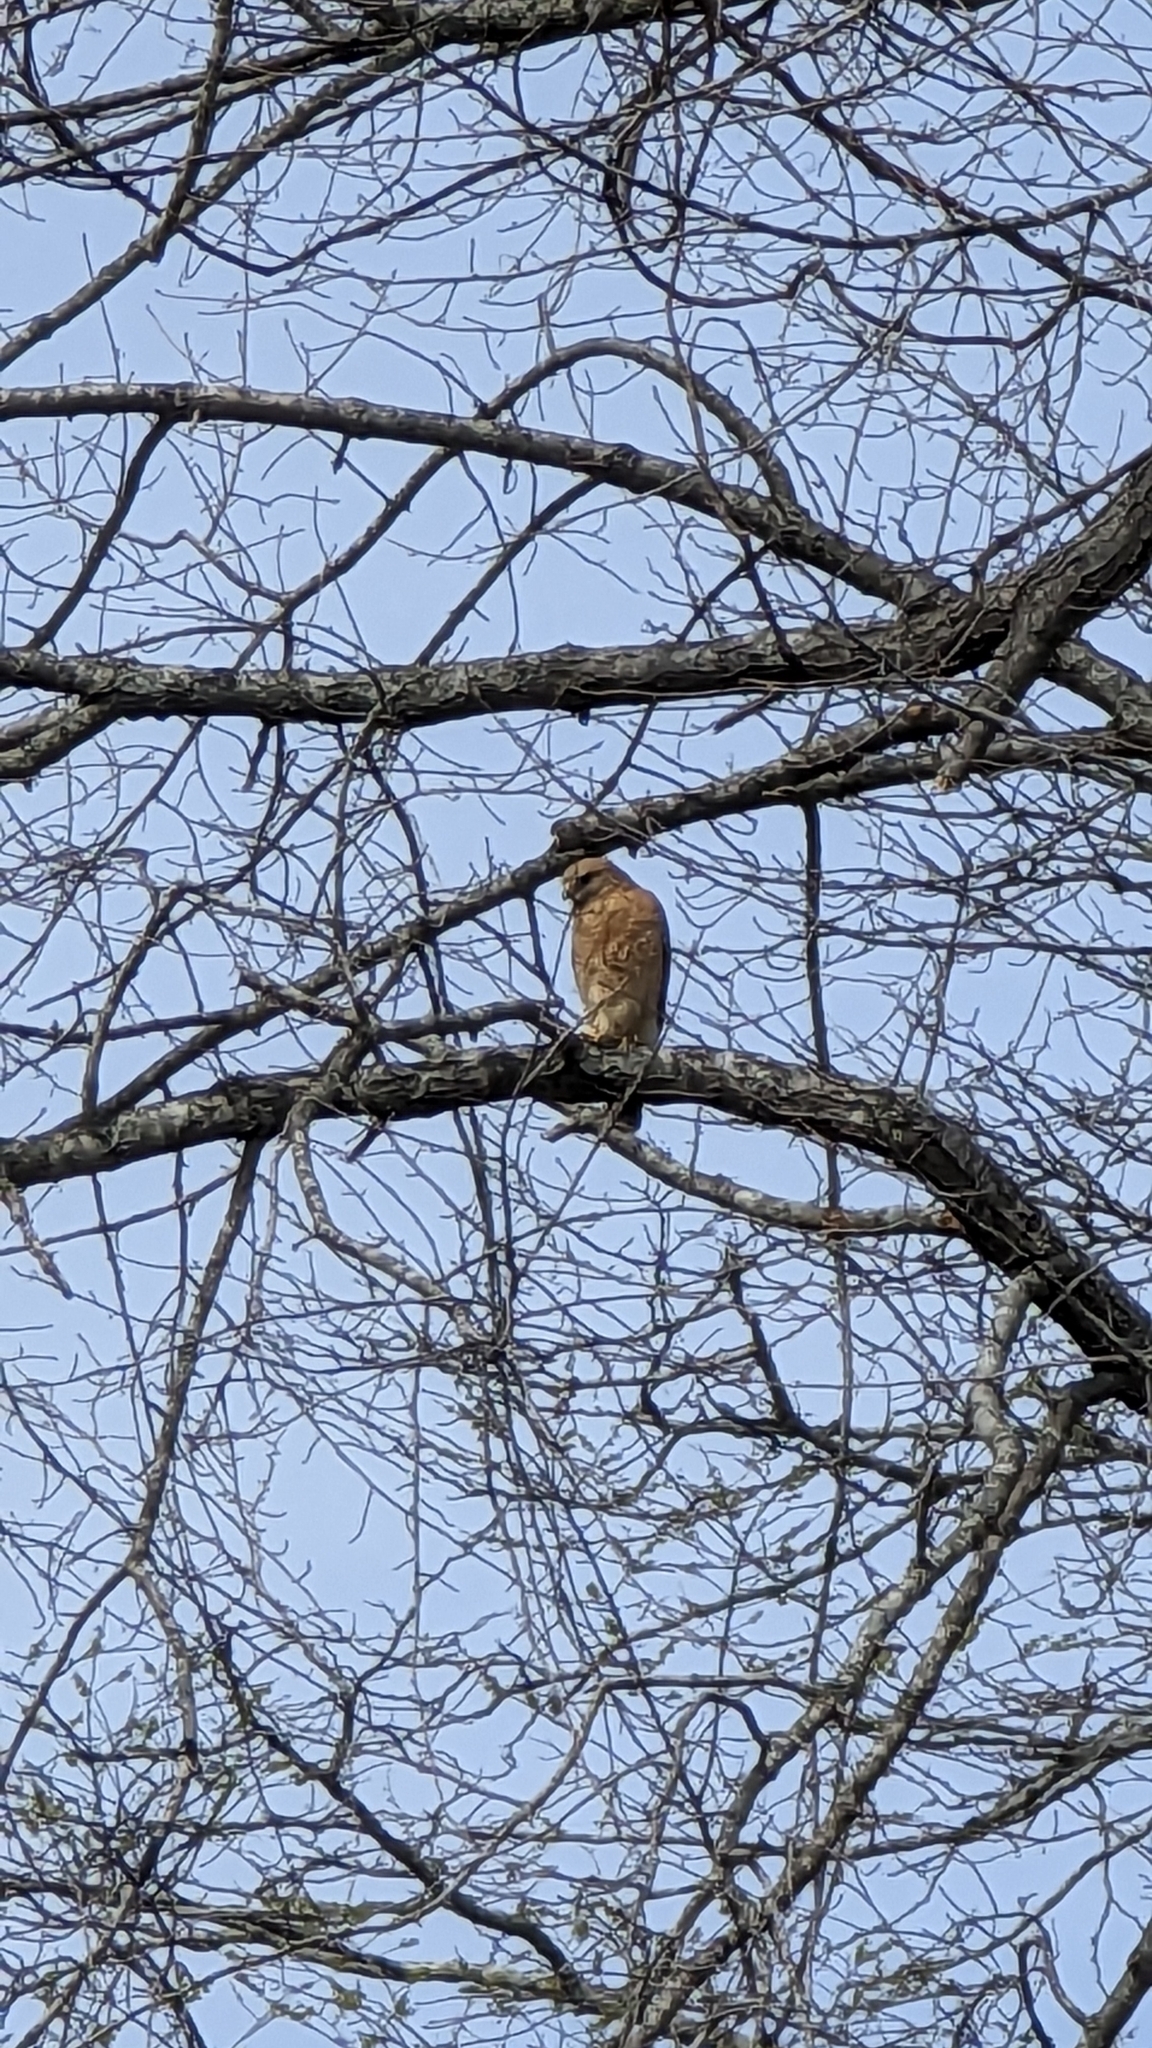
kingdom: Animalia
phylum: Chordata
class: Aves
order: Accipitriformes
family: Accipitridae
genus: Buteo
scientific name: Buteo lineatus
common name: Red-shouldered hawk
